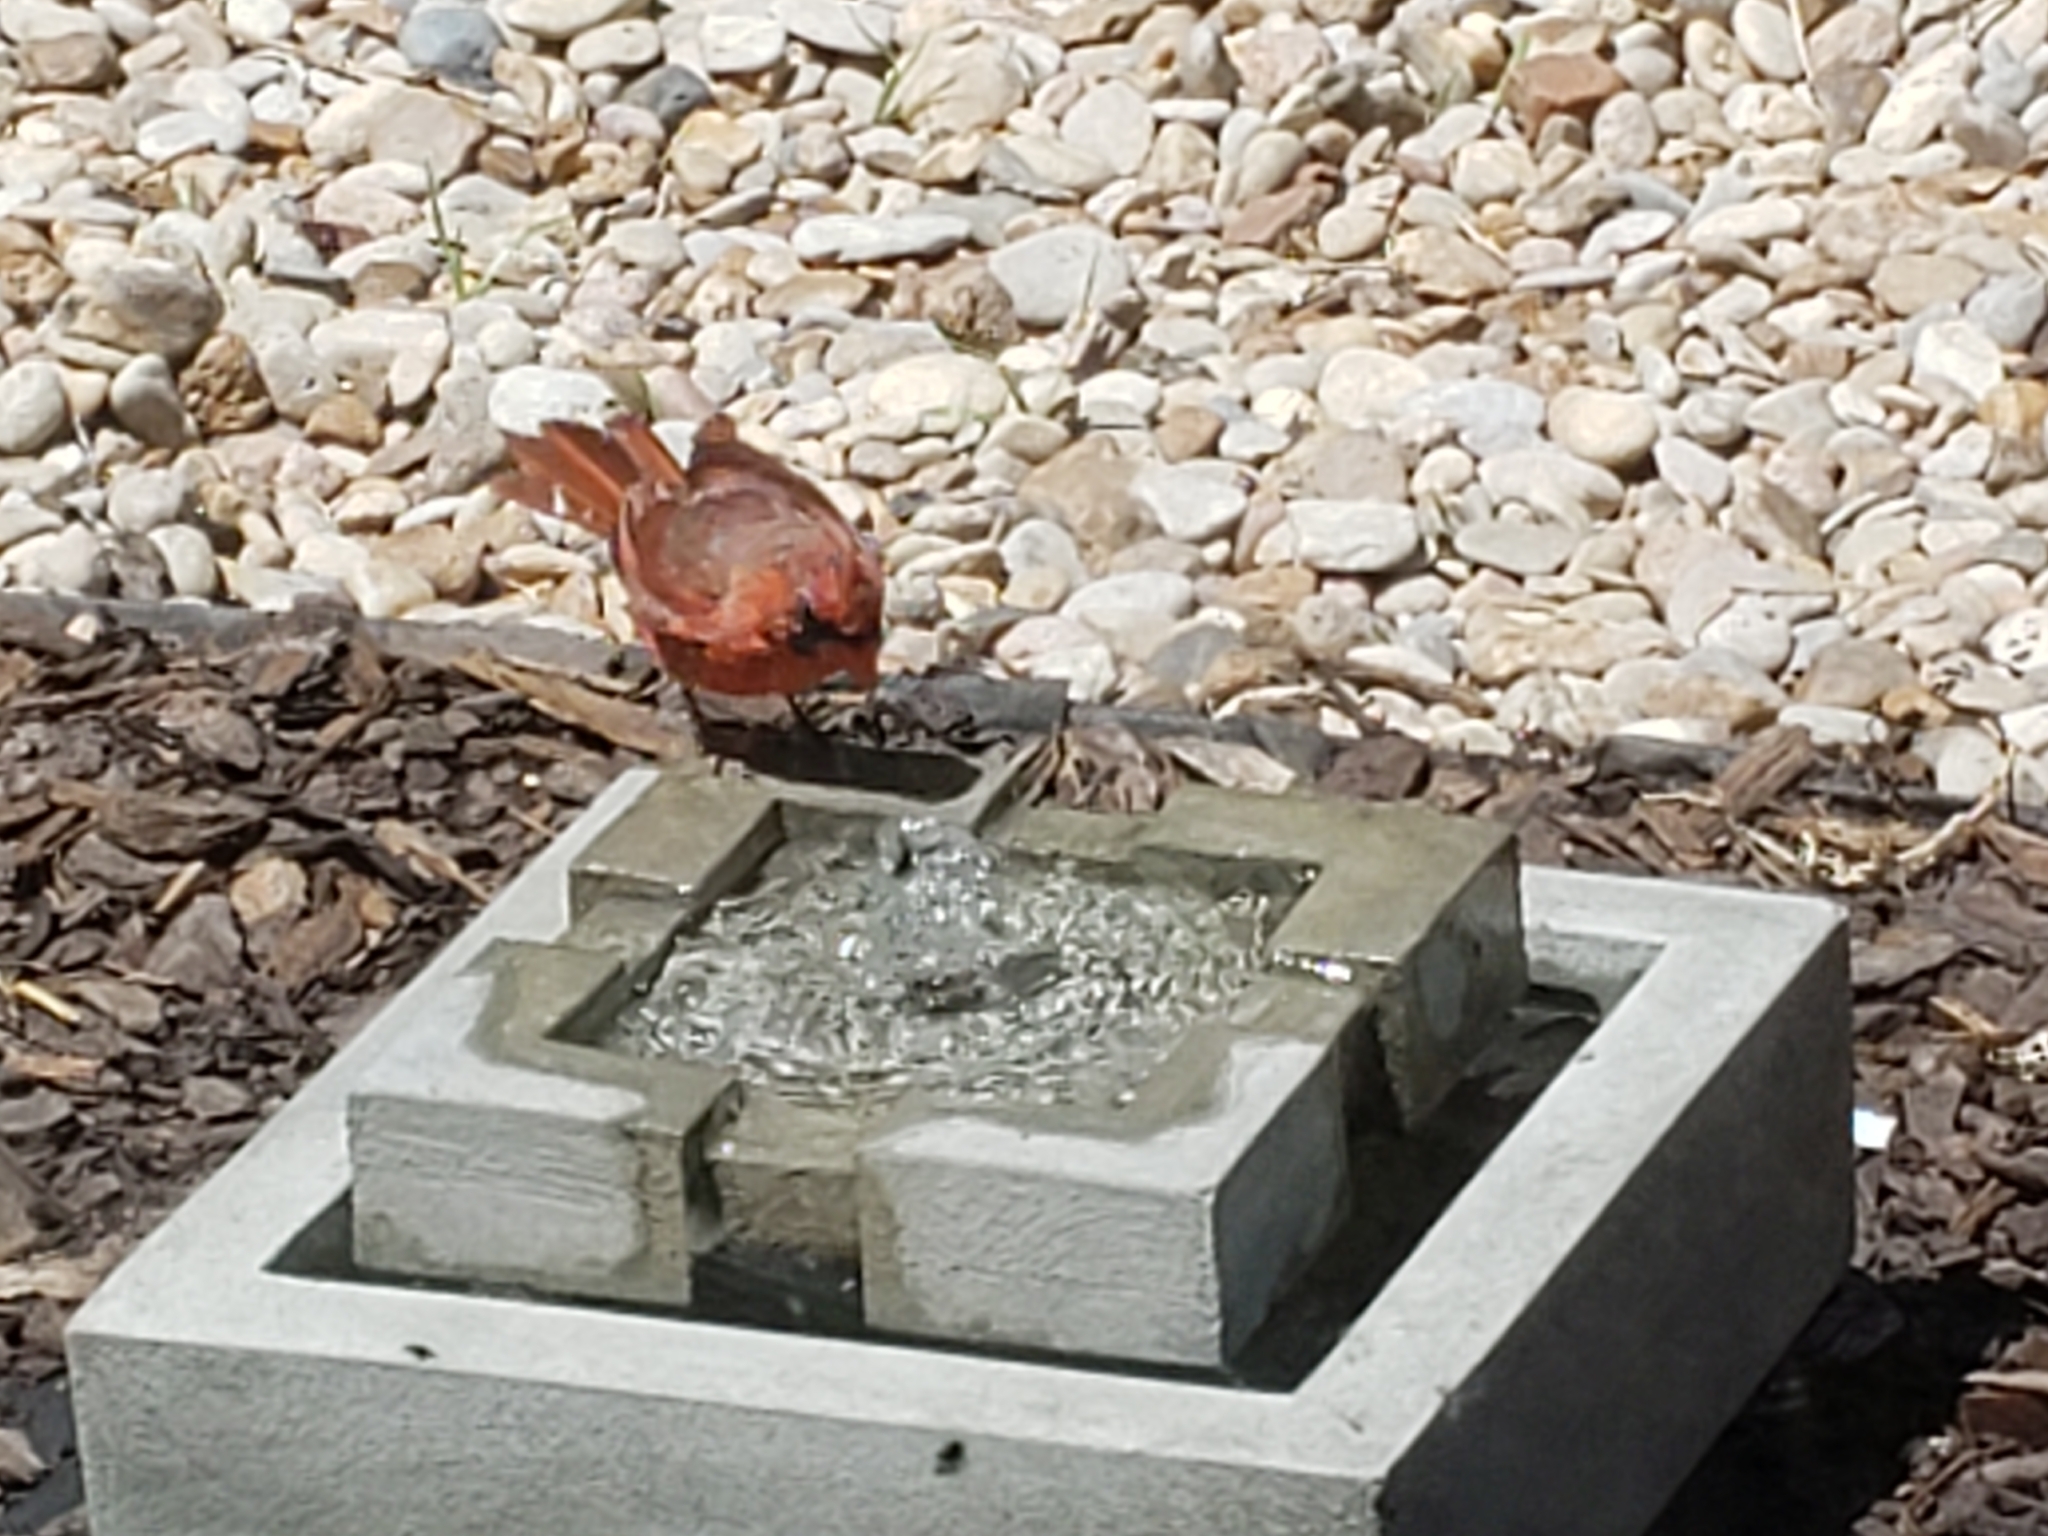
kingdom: Animalia
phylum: Chordata
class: Aves
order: Passeriformes
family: Cardinalidae
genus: Cardinalis
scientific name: Cardinalis cardinalis
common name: Northern cardinal
